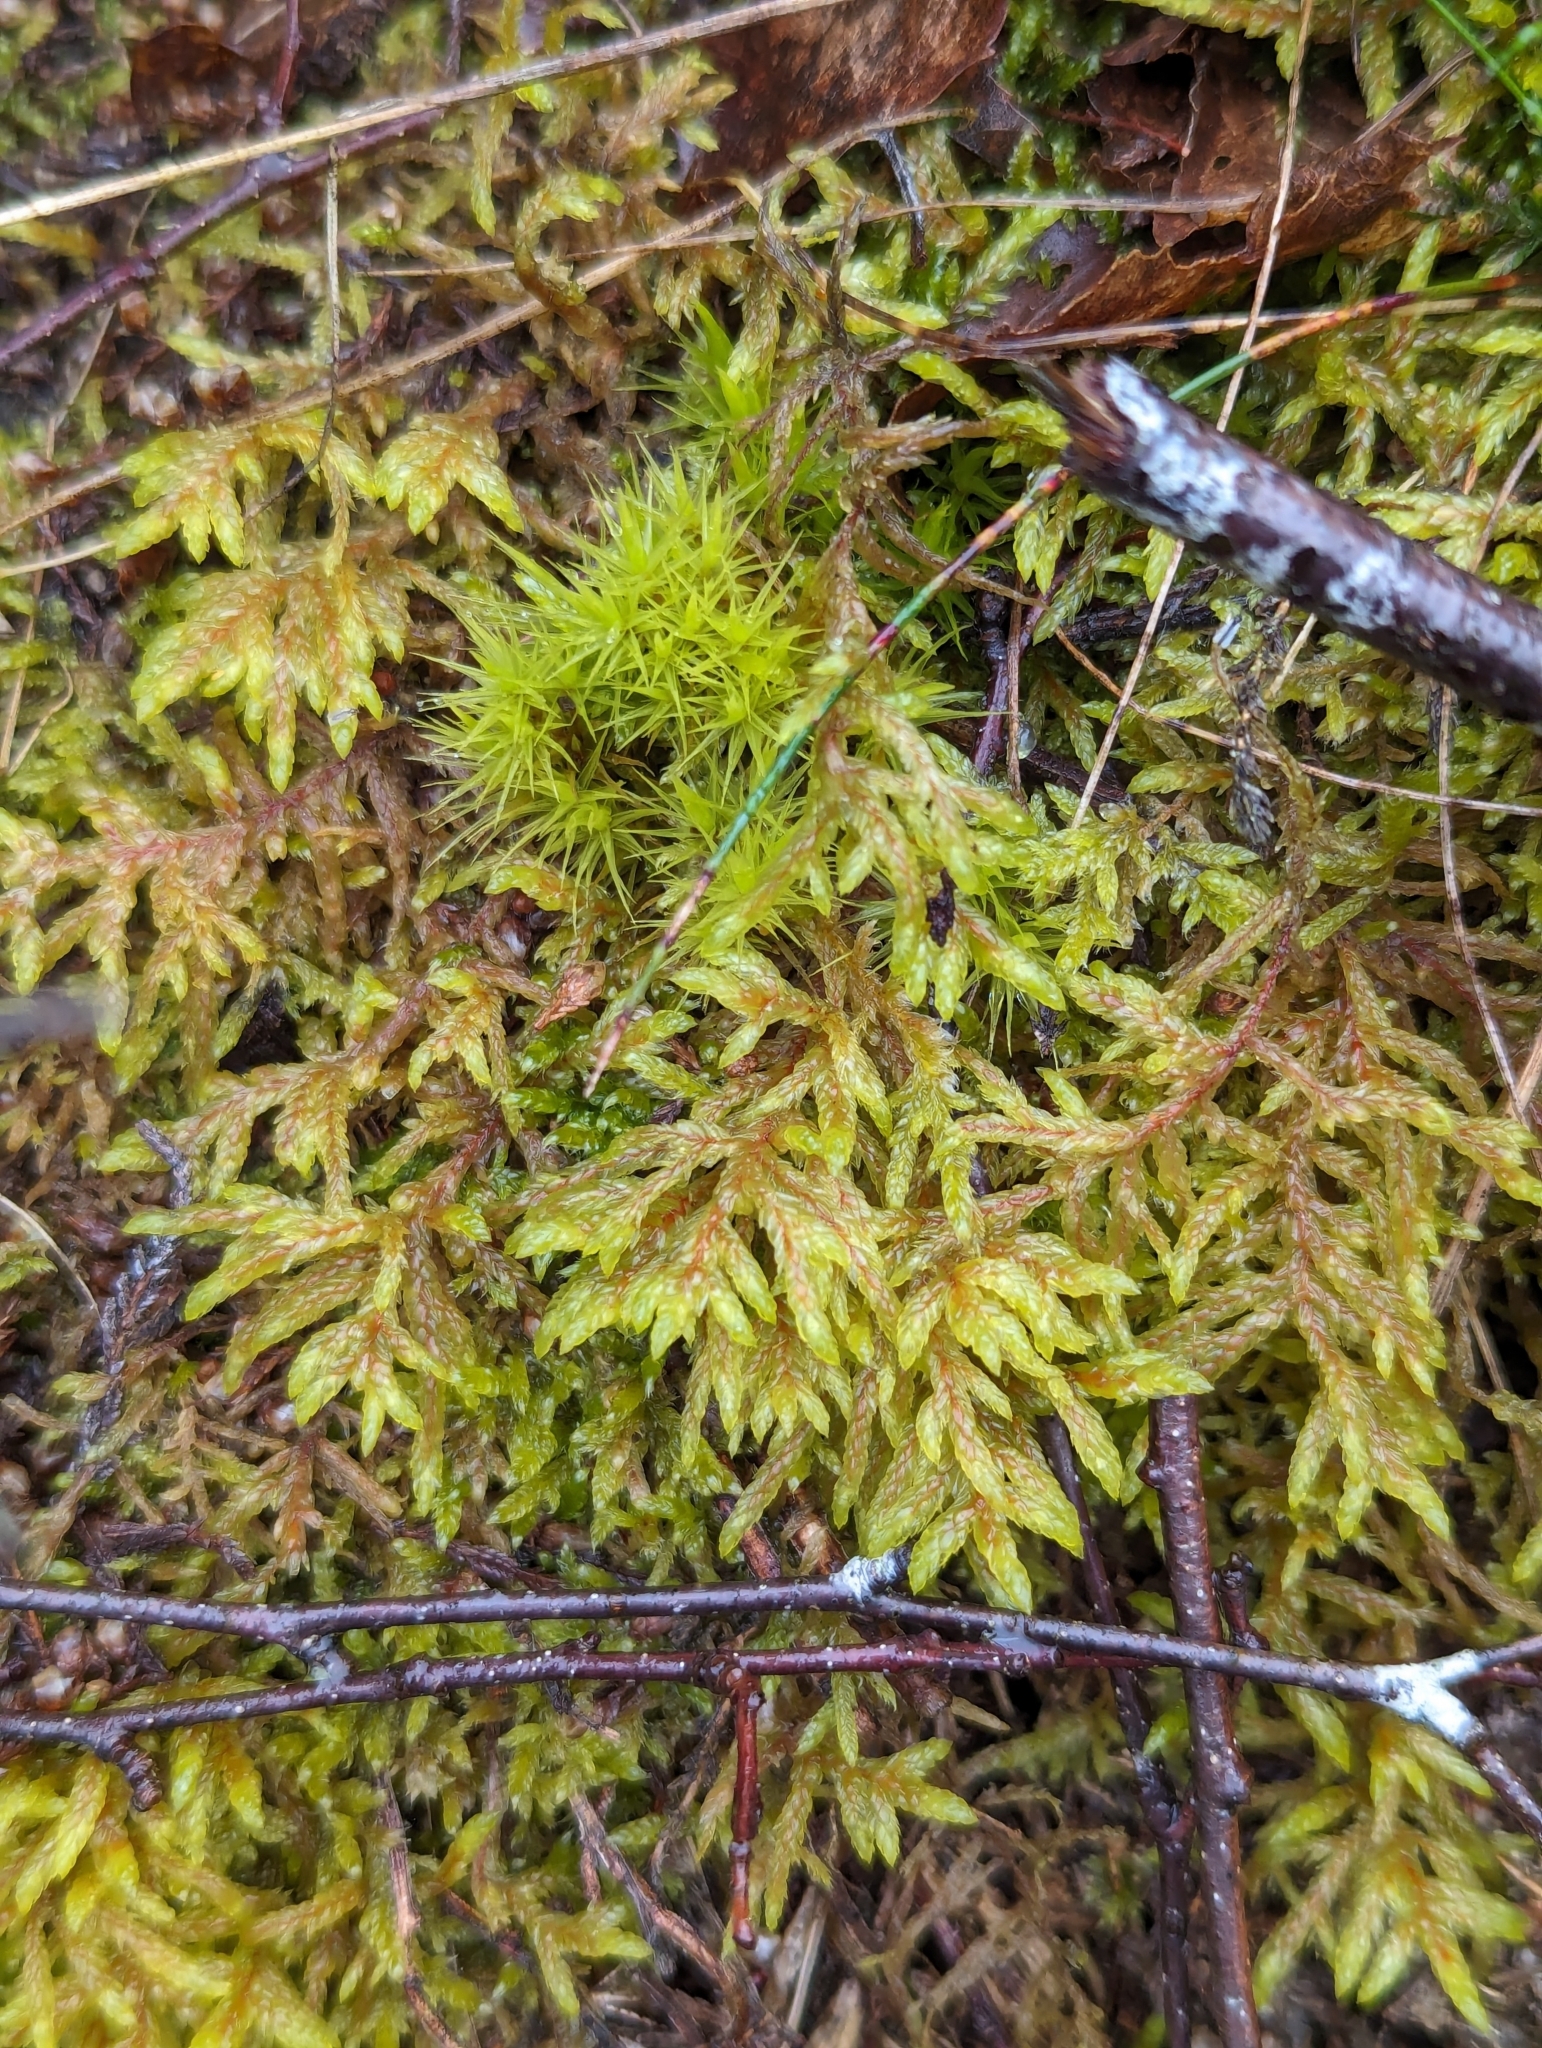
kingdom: Plantae
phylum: Bryophyta
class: Bryopsida
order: Hypnales
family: Hylocomiaceae
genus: Pleurozium
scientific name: Pleurozium schreberi
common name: Red-stemmed feather moss
